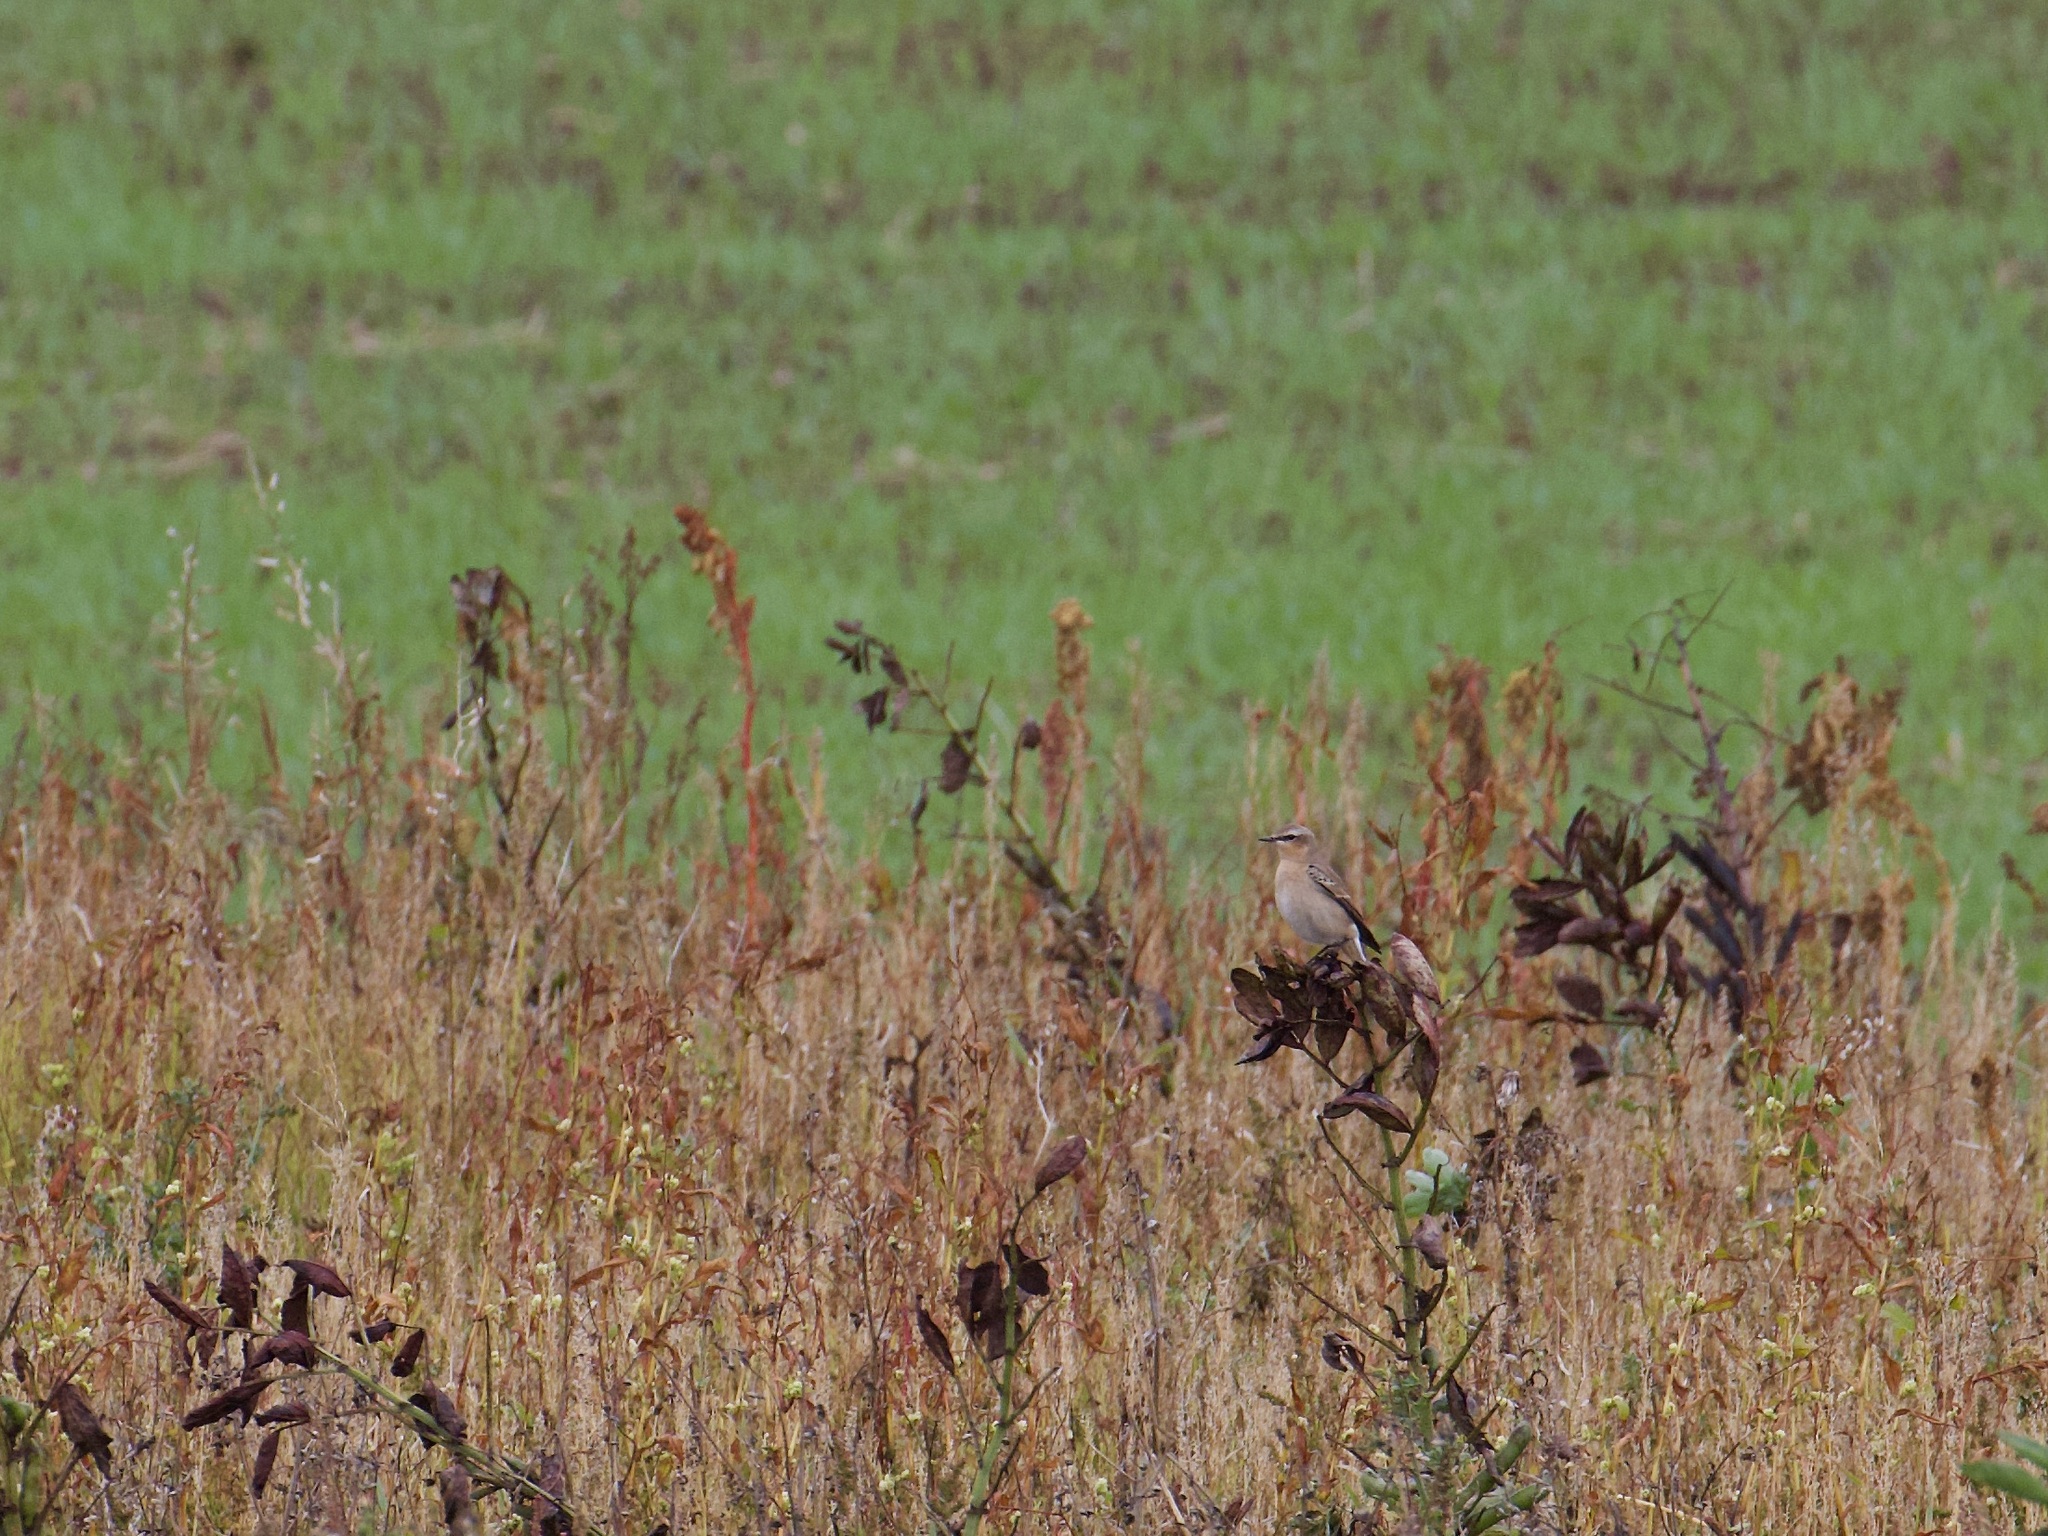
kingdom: Animalia
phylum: Chordata
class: Aves
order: Passeriformes
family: Muscicapidae
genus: Oenanthe
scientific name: Oenanthe oenanthe
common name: Northern wheatear
